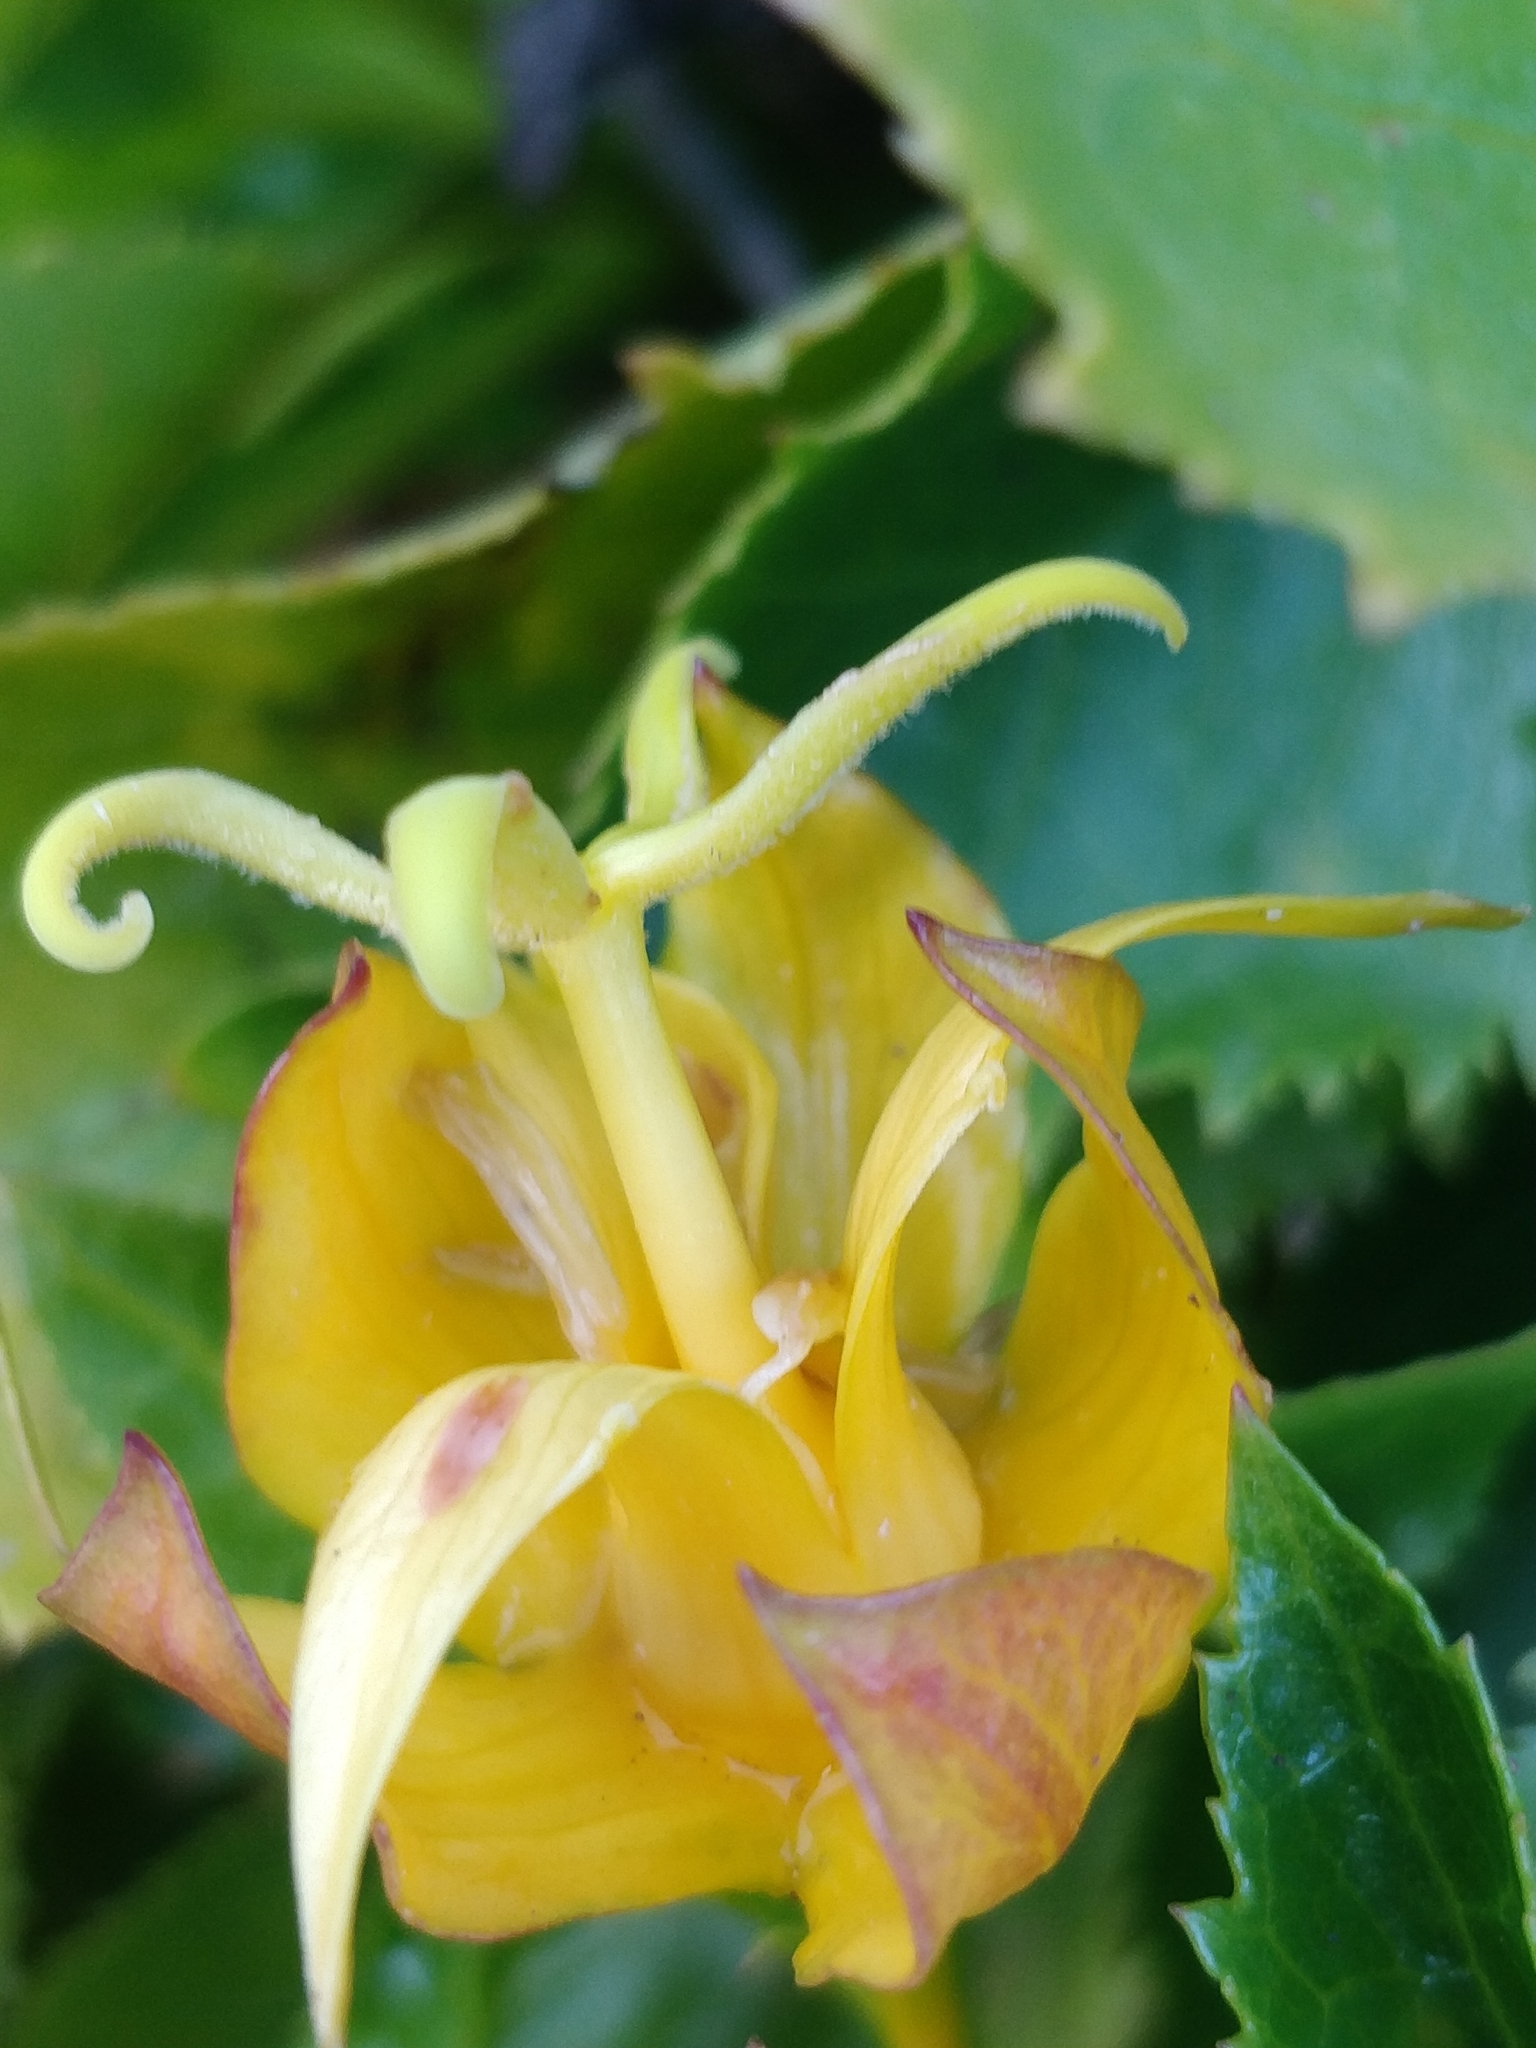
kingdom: Plantae
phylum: Tracheophyta
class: Magnoliopsida
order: Asterales
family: Campanulaceae
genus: Musschia
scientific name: Musschia aurea
